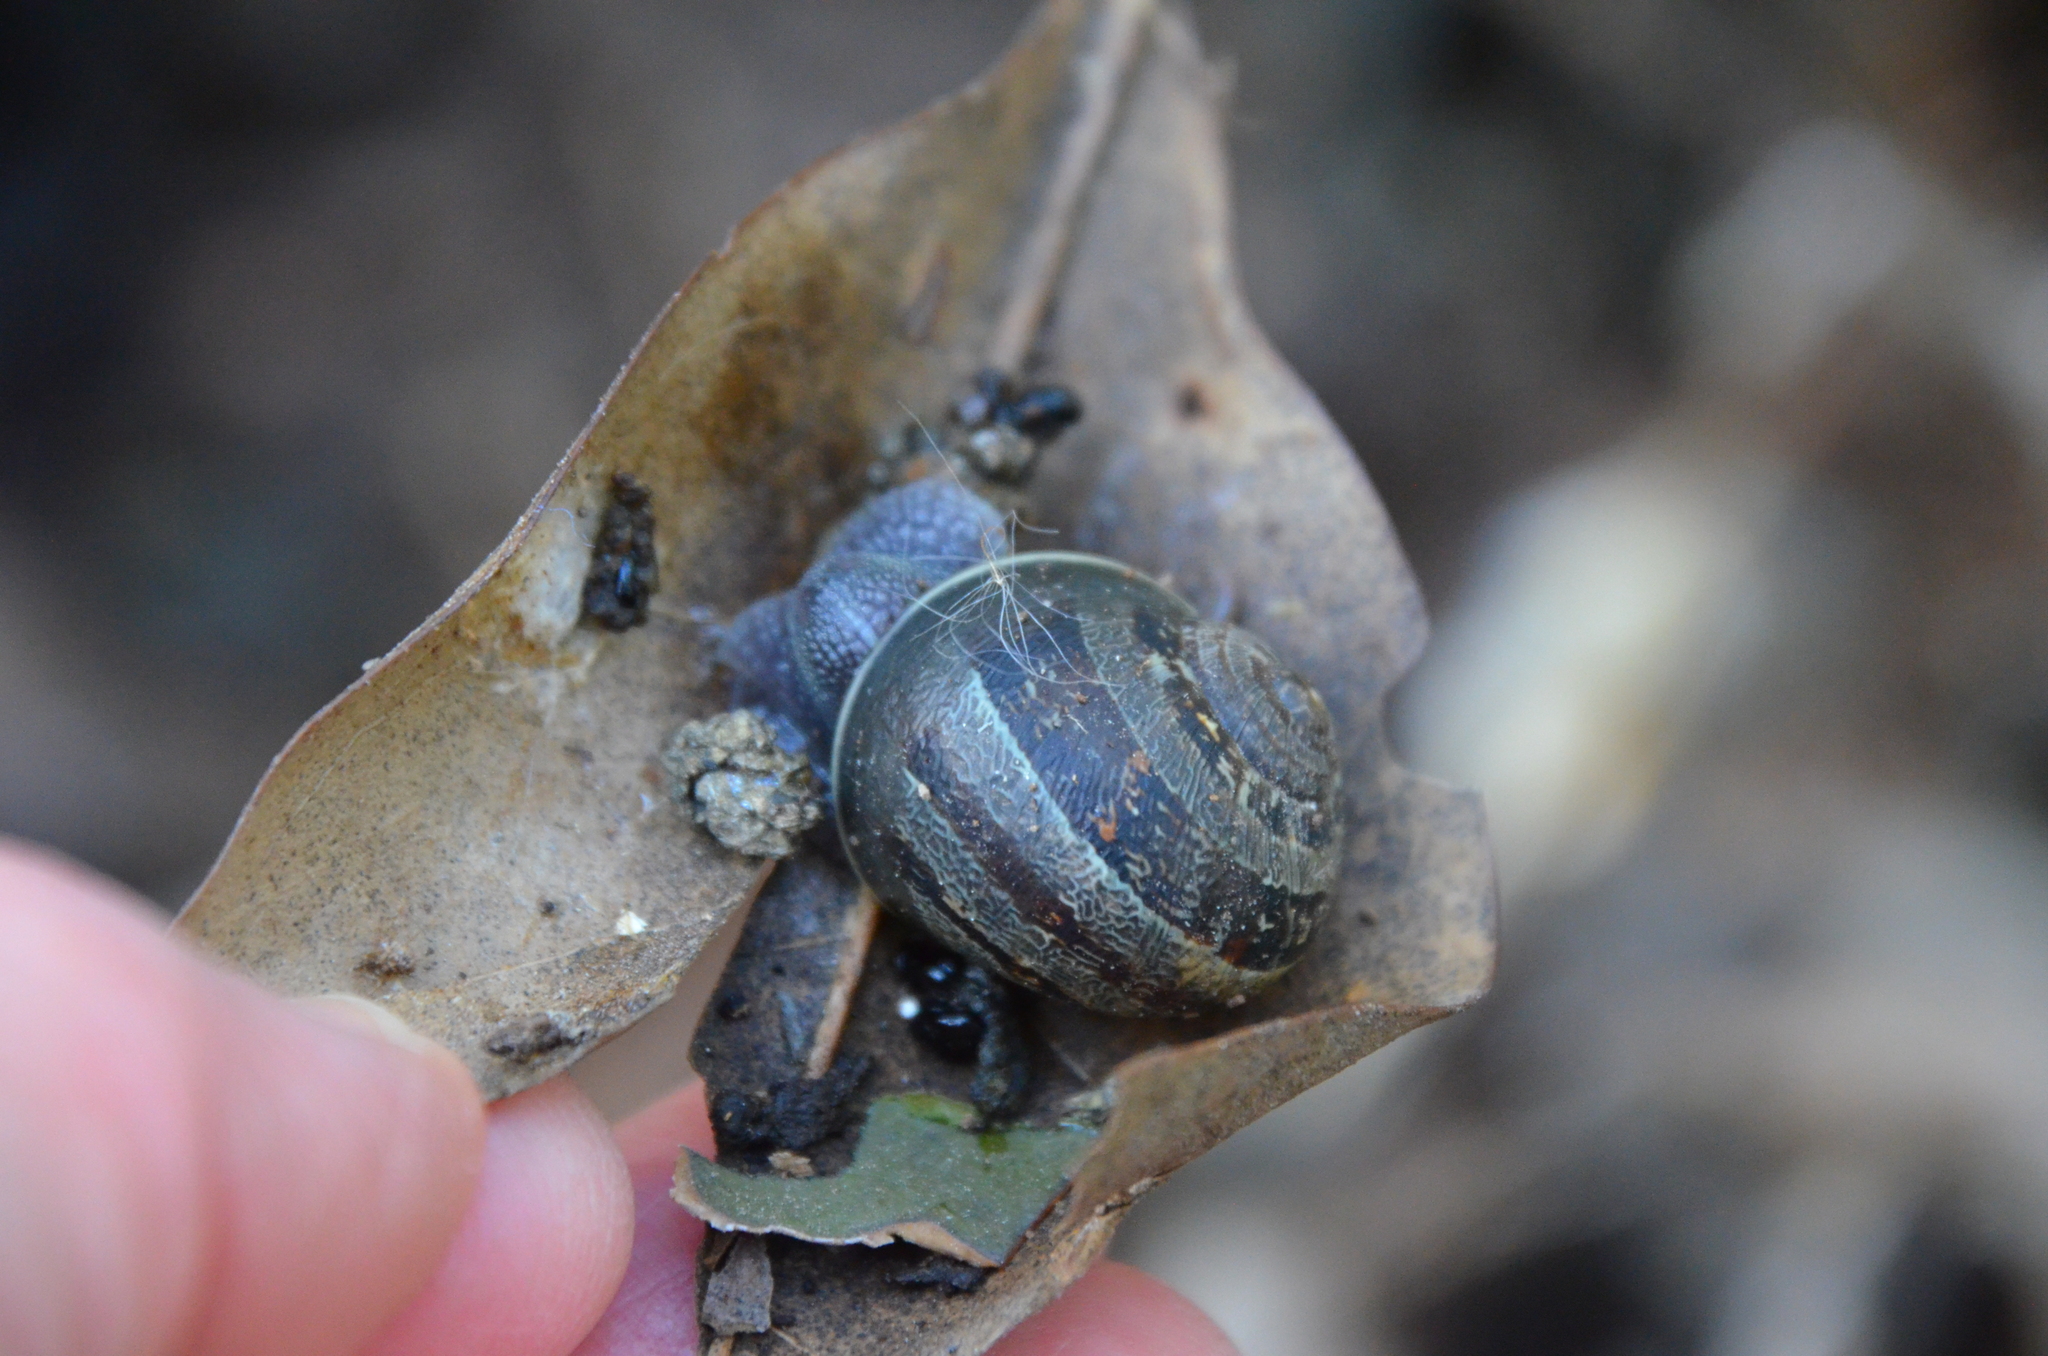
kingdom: Animalia
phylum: Mollusca
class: Gastropoda
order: Stylommatophora
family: Helicidae
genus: Cornu
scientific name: Cornu aspersum
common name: Brown garden snail
